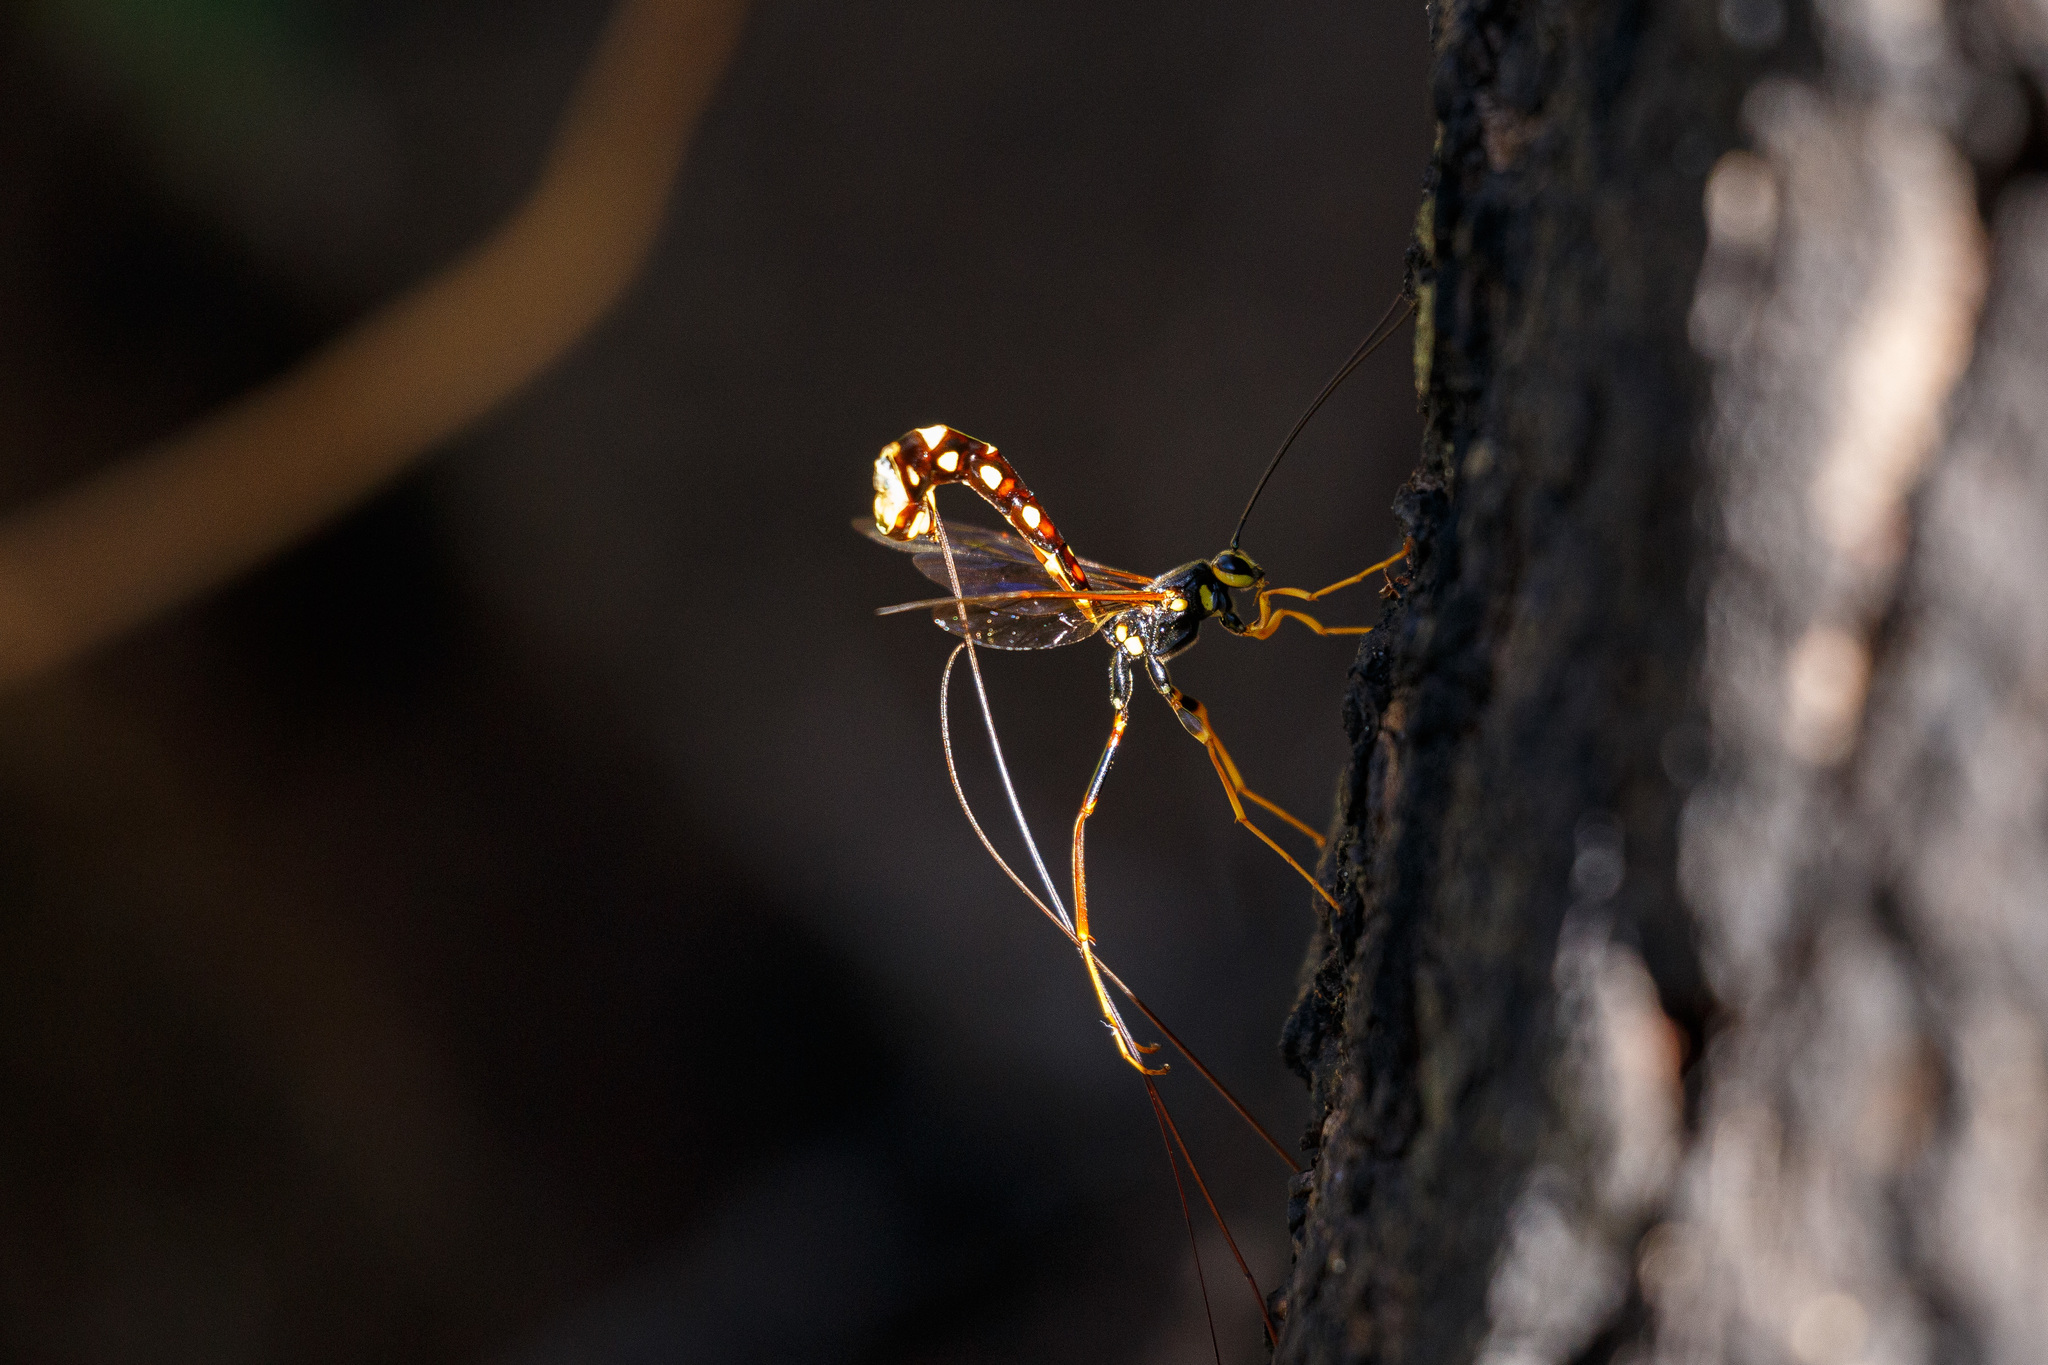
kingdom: Animalia
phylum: Arthropoda
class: Insecta
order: Hymenoptera
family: Ichneumonidae
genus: Megarhyssa
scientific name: Megarhyssa nortoni
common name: Norton's giant ichneumonid wasp
